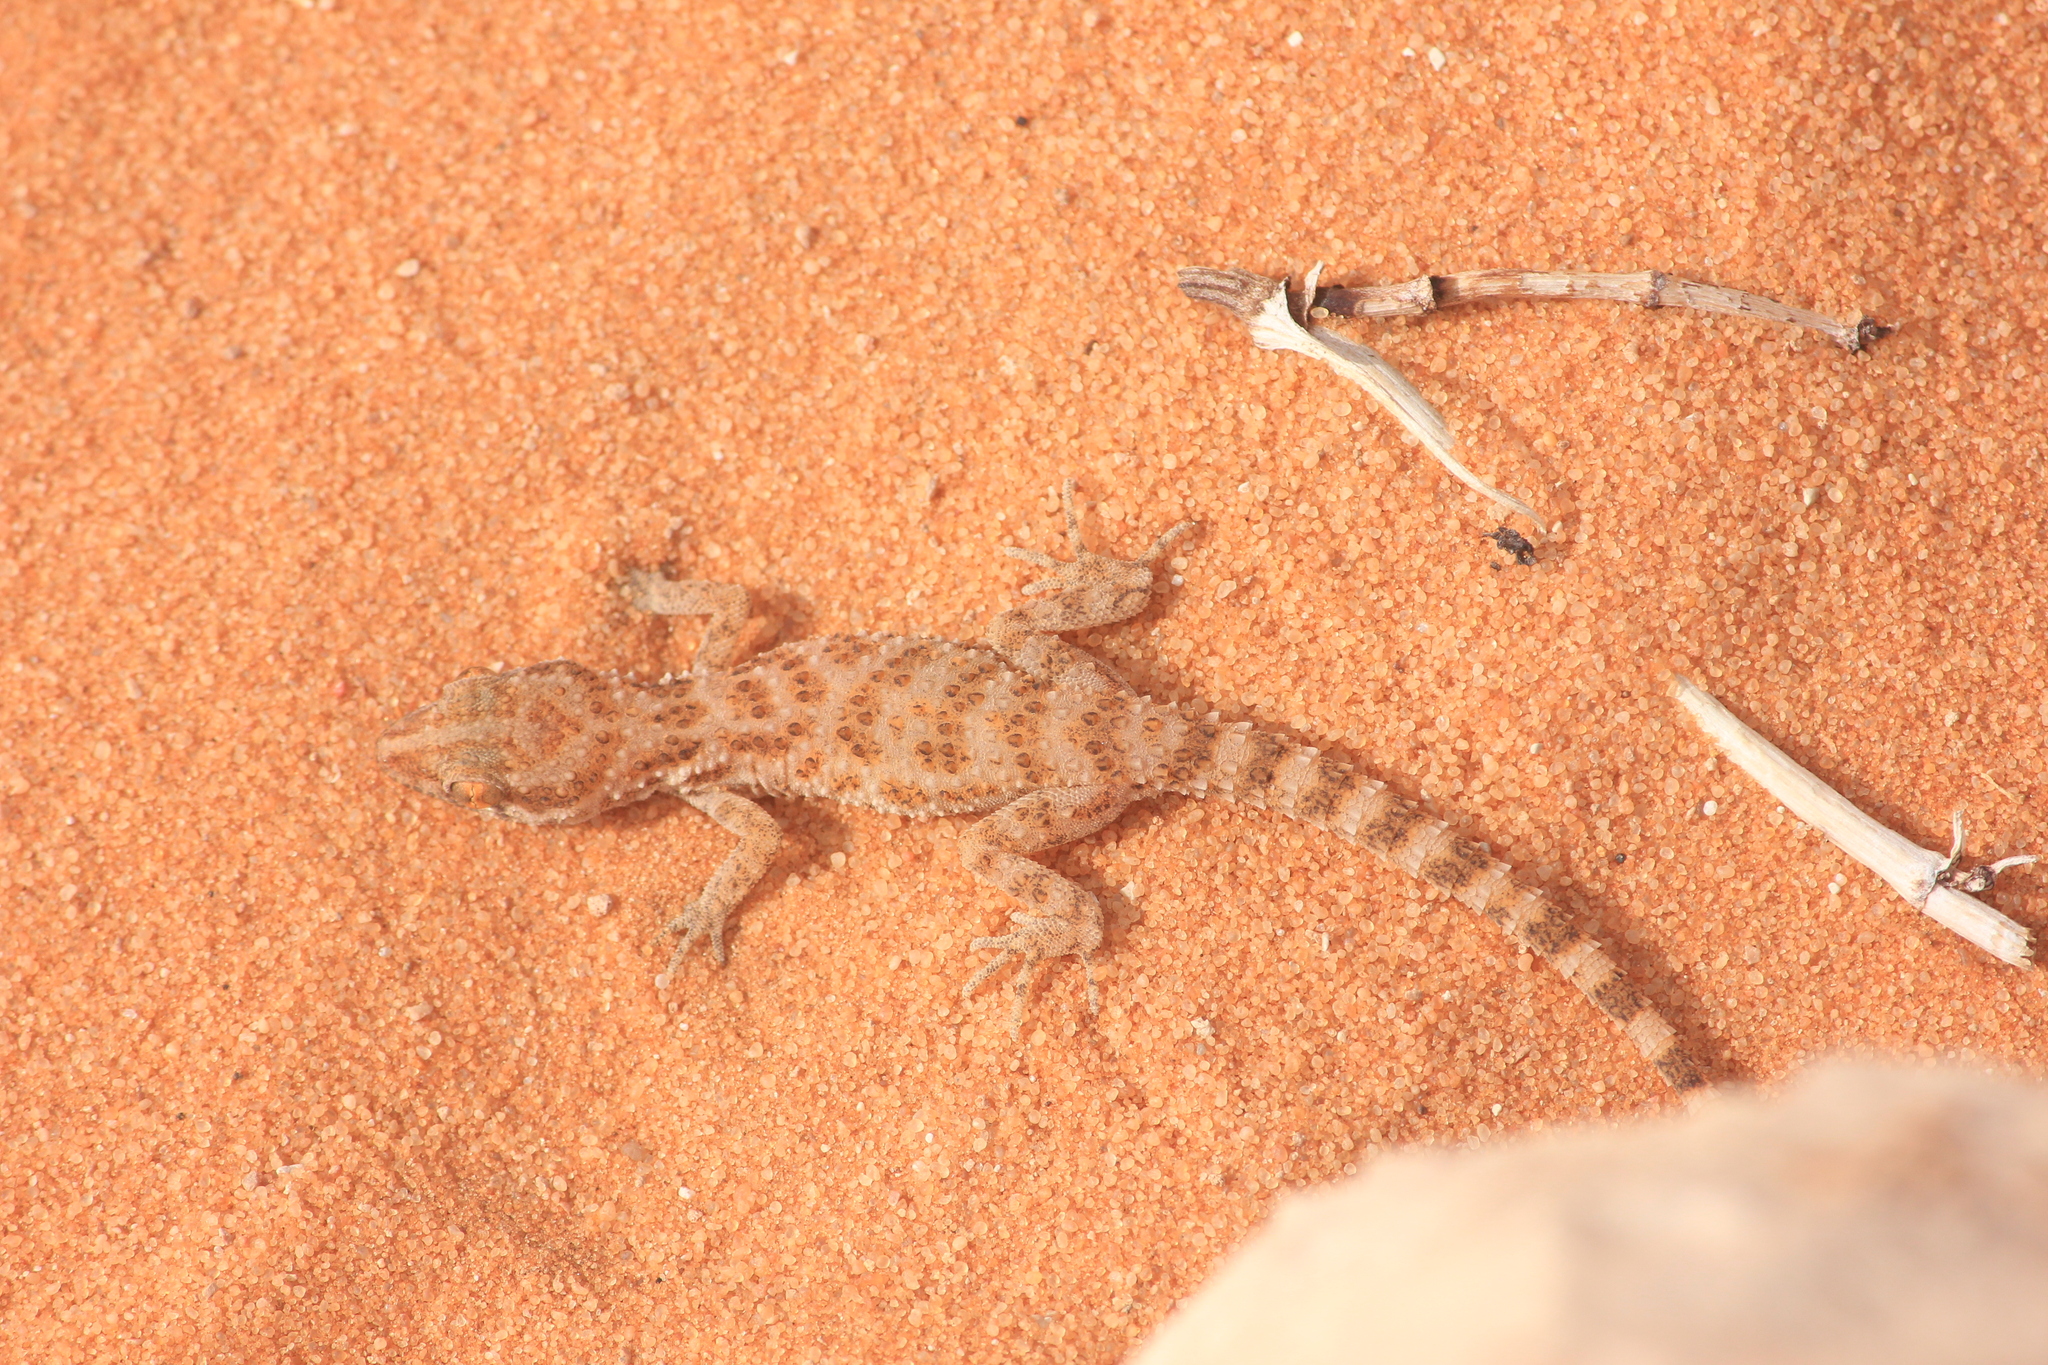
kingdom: Animalia
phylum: Chordata
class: Squamata
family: Gekkonidae
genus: Bunopus
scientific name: Bunopus tuberculatus
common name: Southern tuberculated gecko
